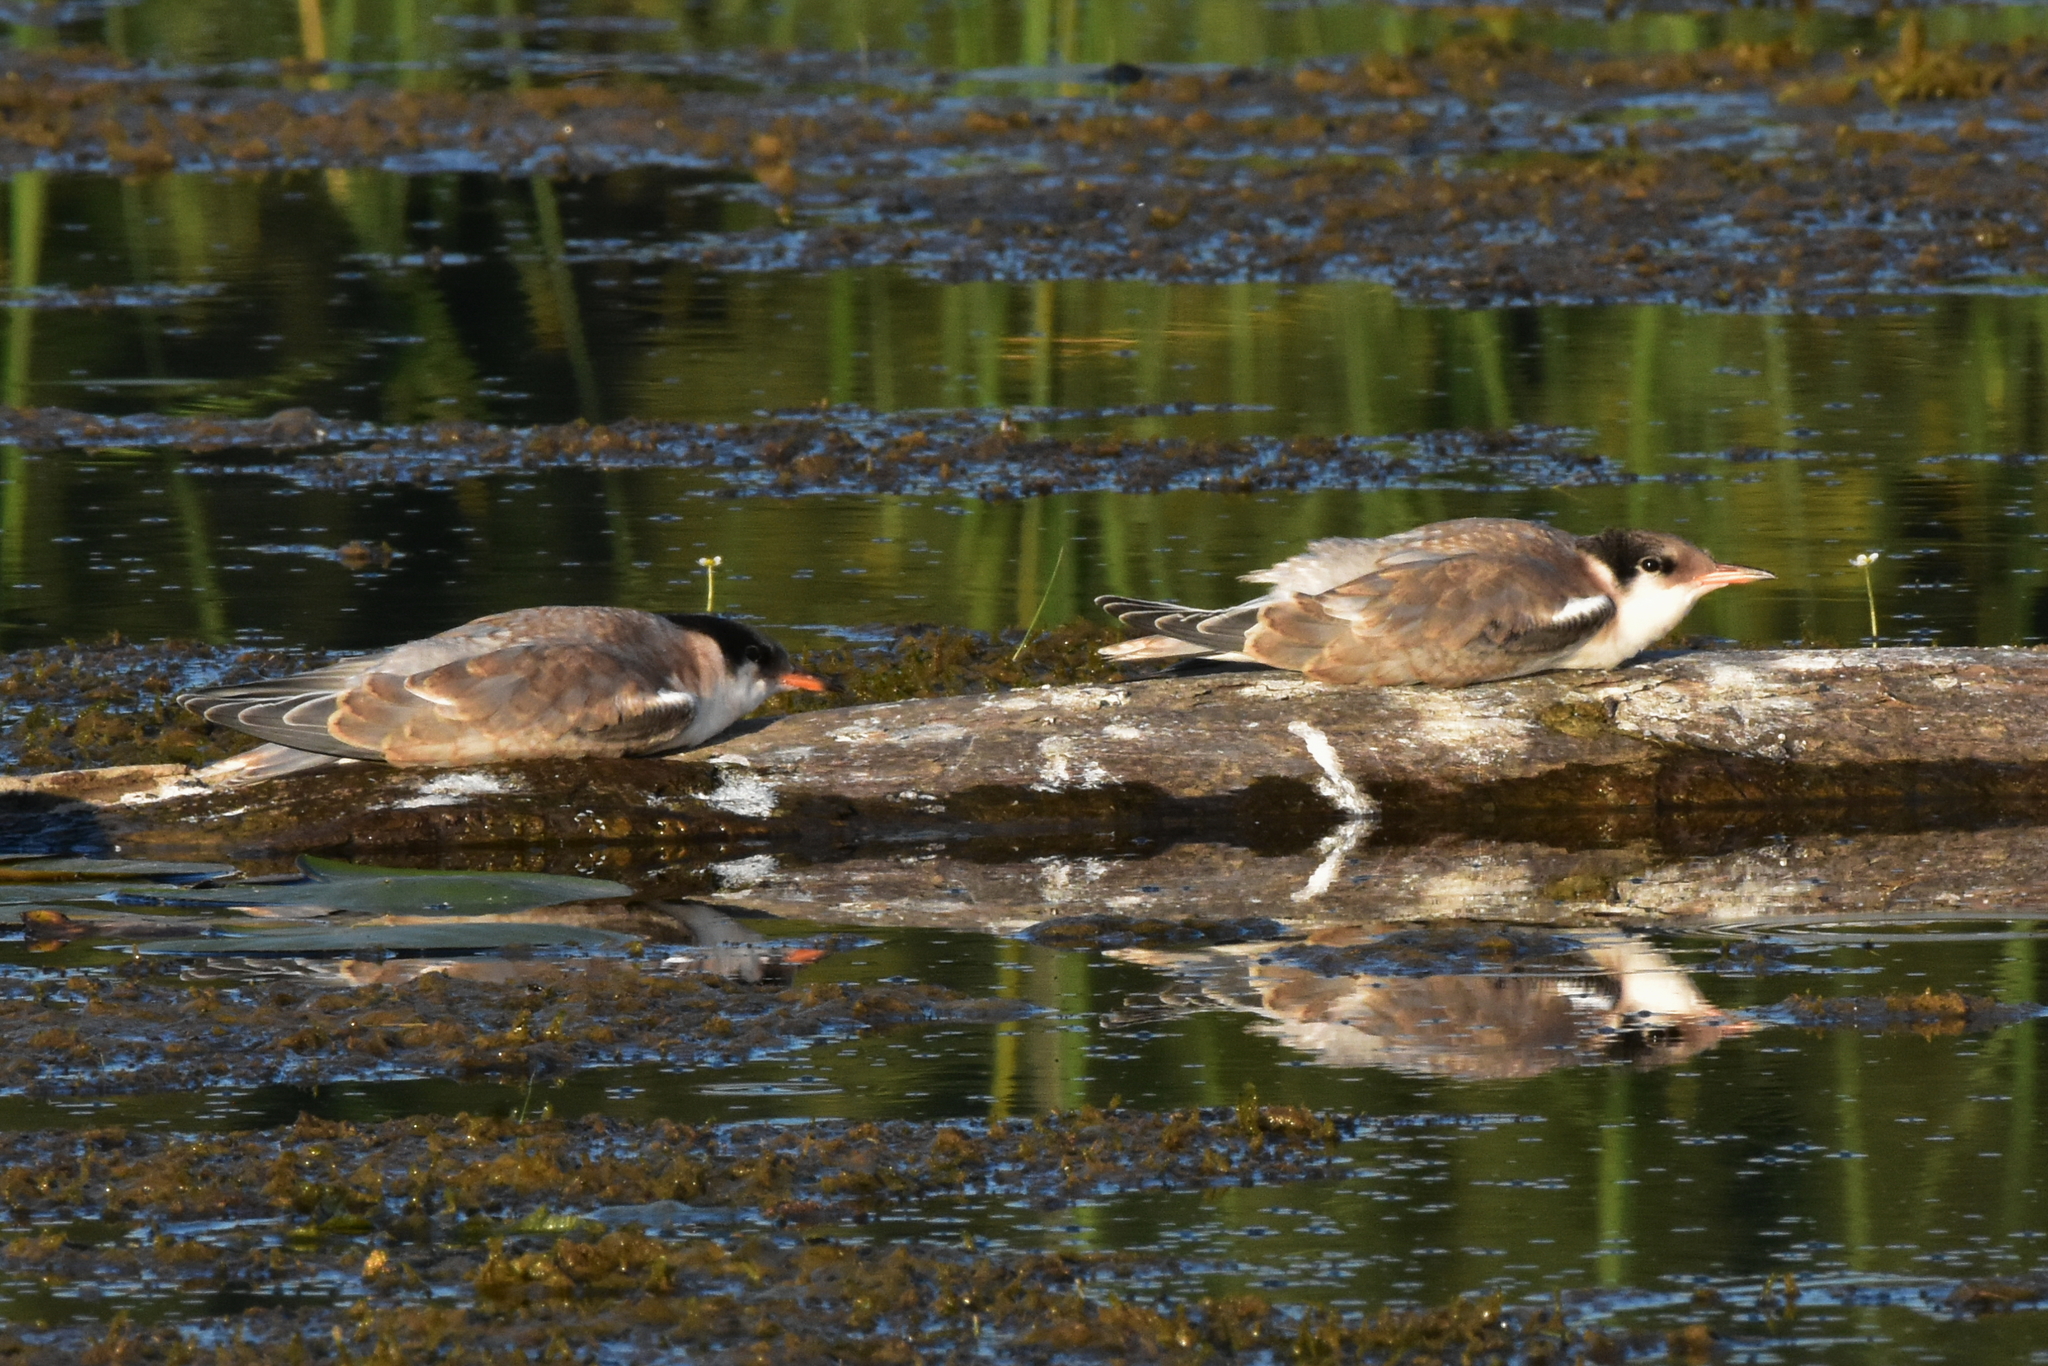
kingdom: Animalia
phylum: Chordata
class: Aves
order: Charadriiformes
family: Laridae
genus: Sterna
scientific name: Sterna hirundo
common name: Common tern
